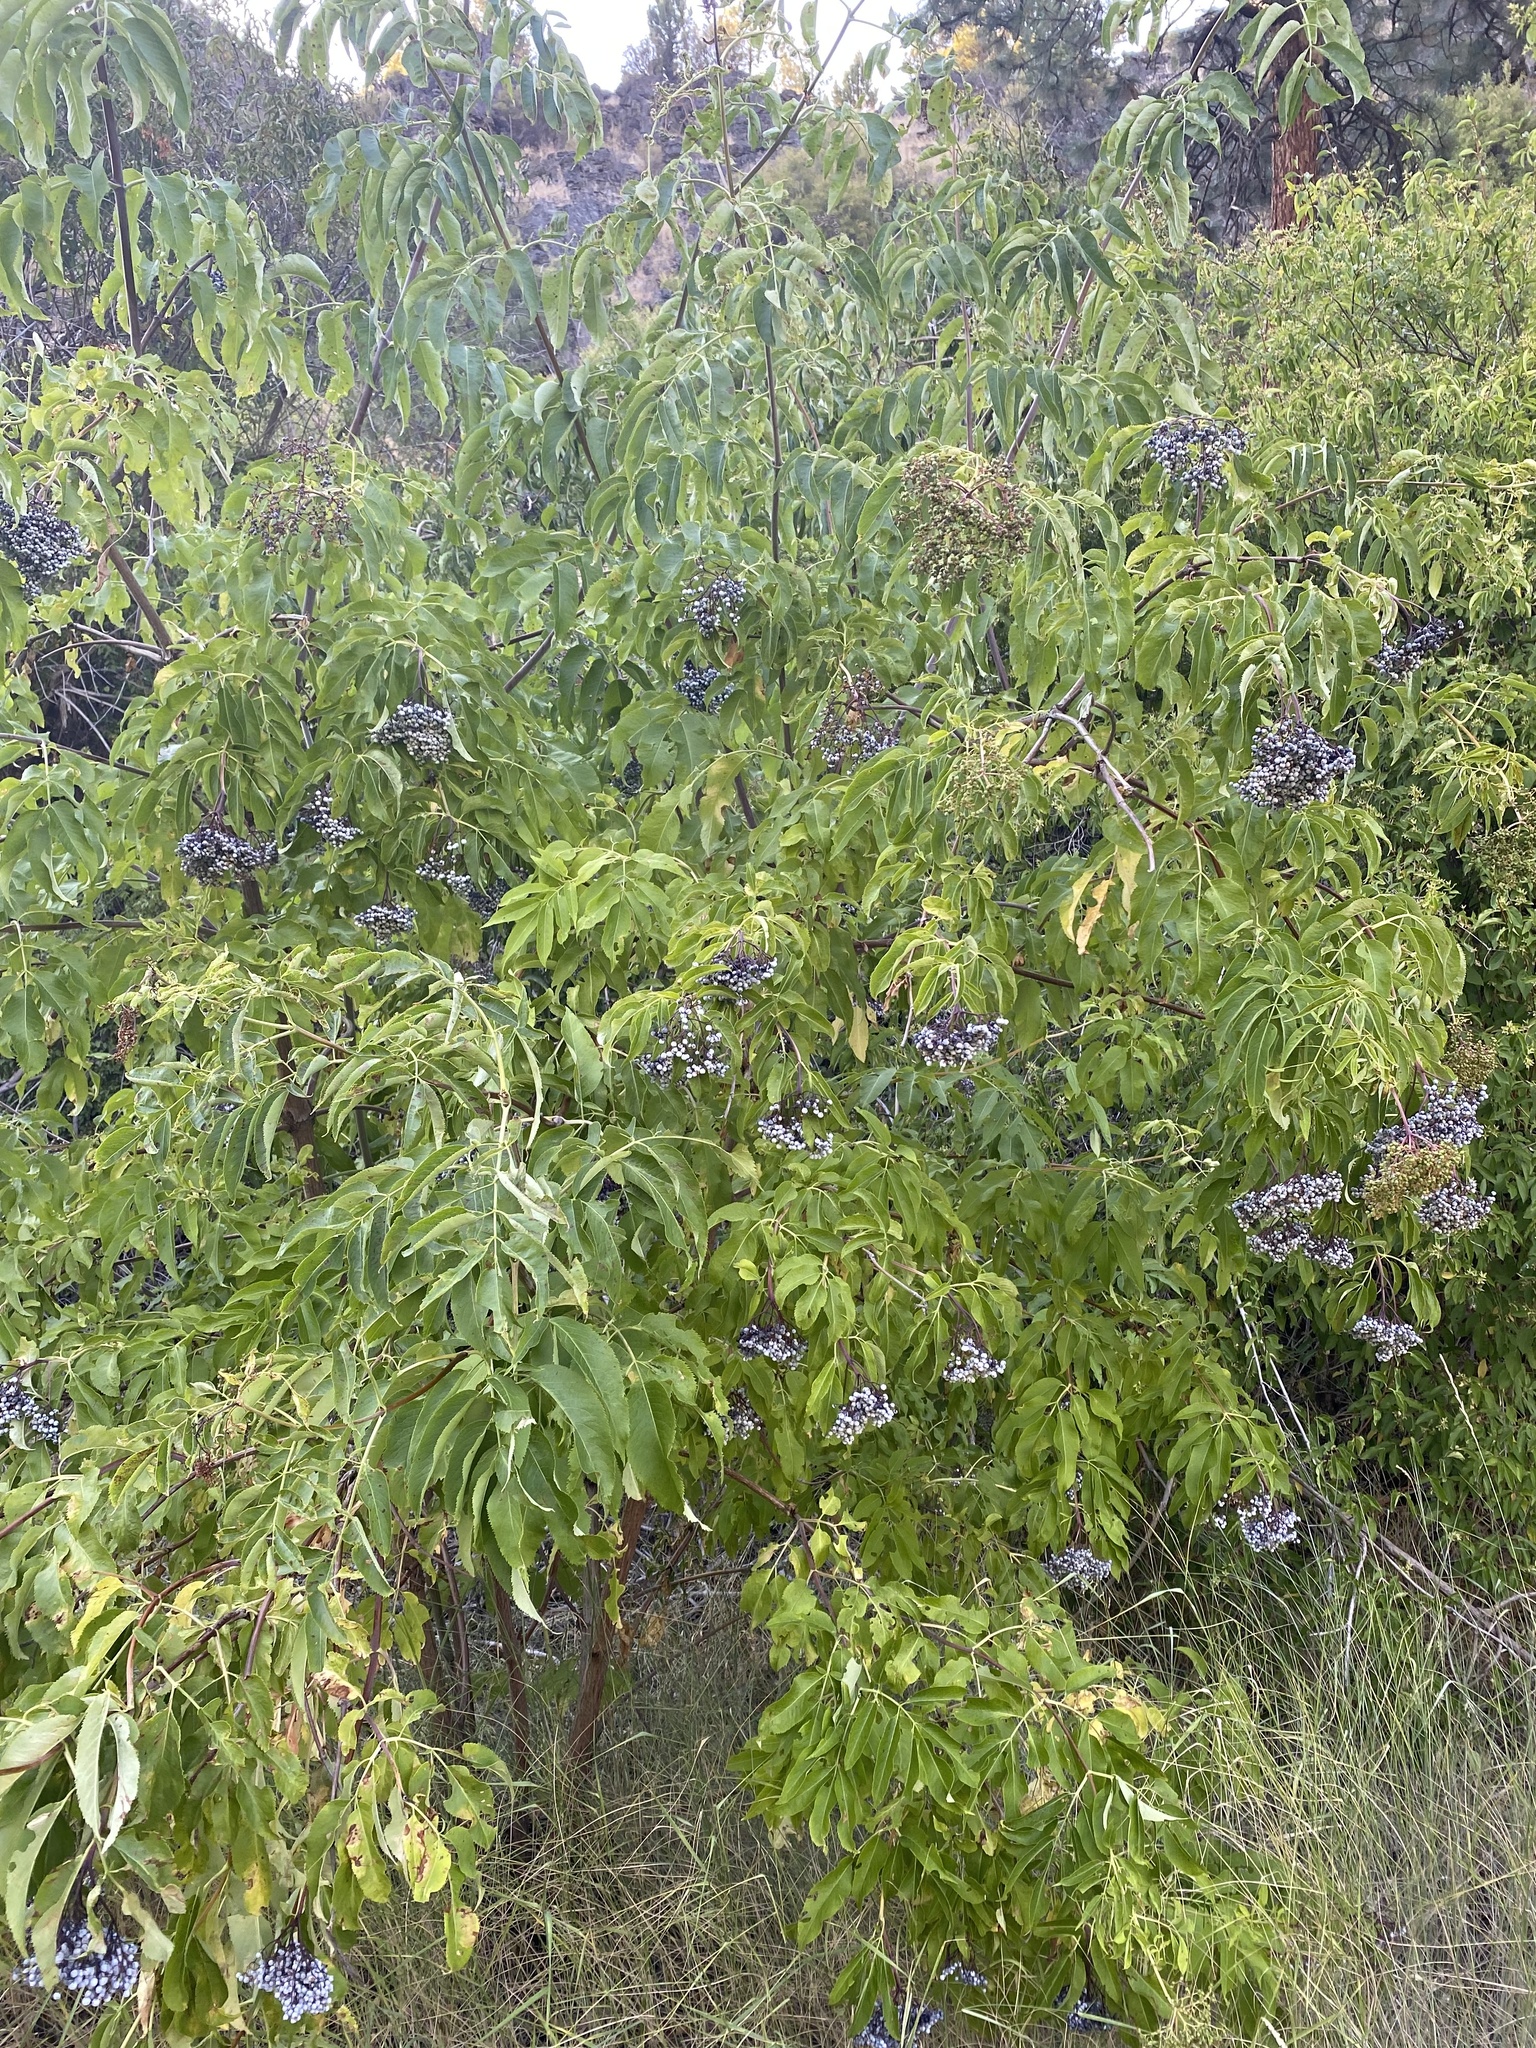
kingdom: Plantae
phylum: Tracheophyta
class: Magnoliopsida
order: Dipsacales
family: Viburnaceae
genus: Sambucus
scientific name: Sambucus cerulea
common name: Blue elder
